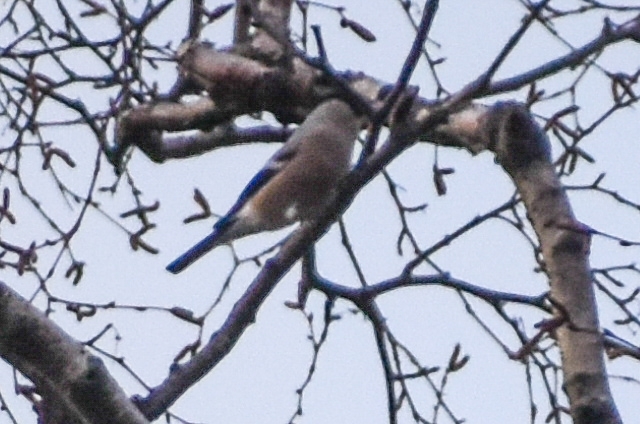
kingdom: Animalia
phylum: Chordata
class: Aves
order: Passeriformes
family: Fringillidae
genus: Pyrrhula
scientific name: Pyrrhula pyrrhula
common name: Eurasian bullfinch
